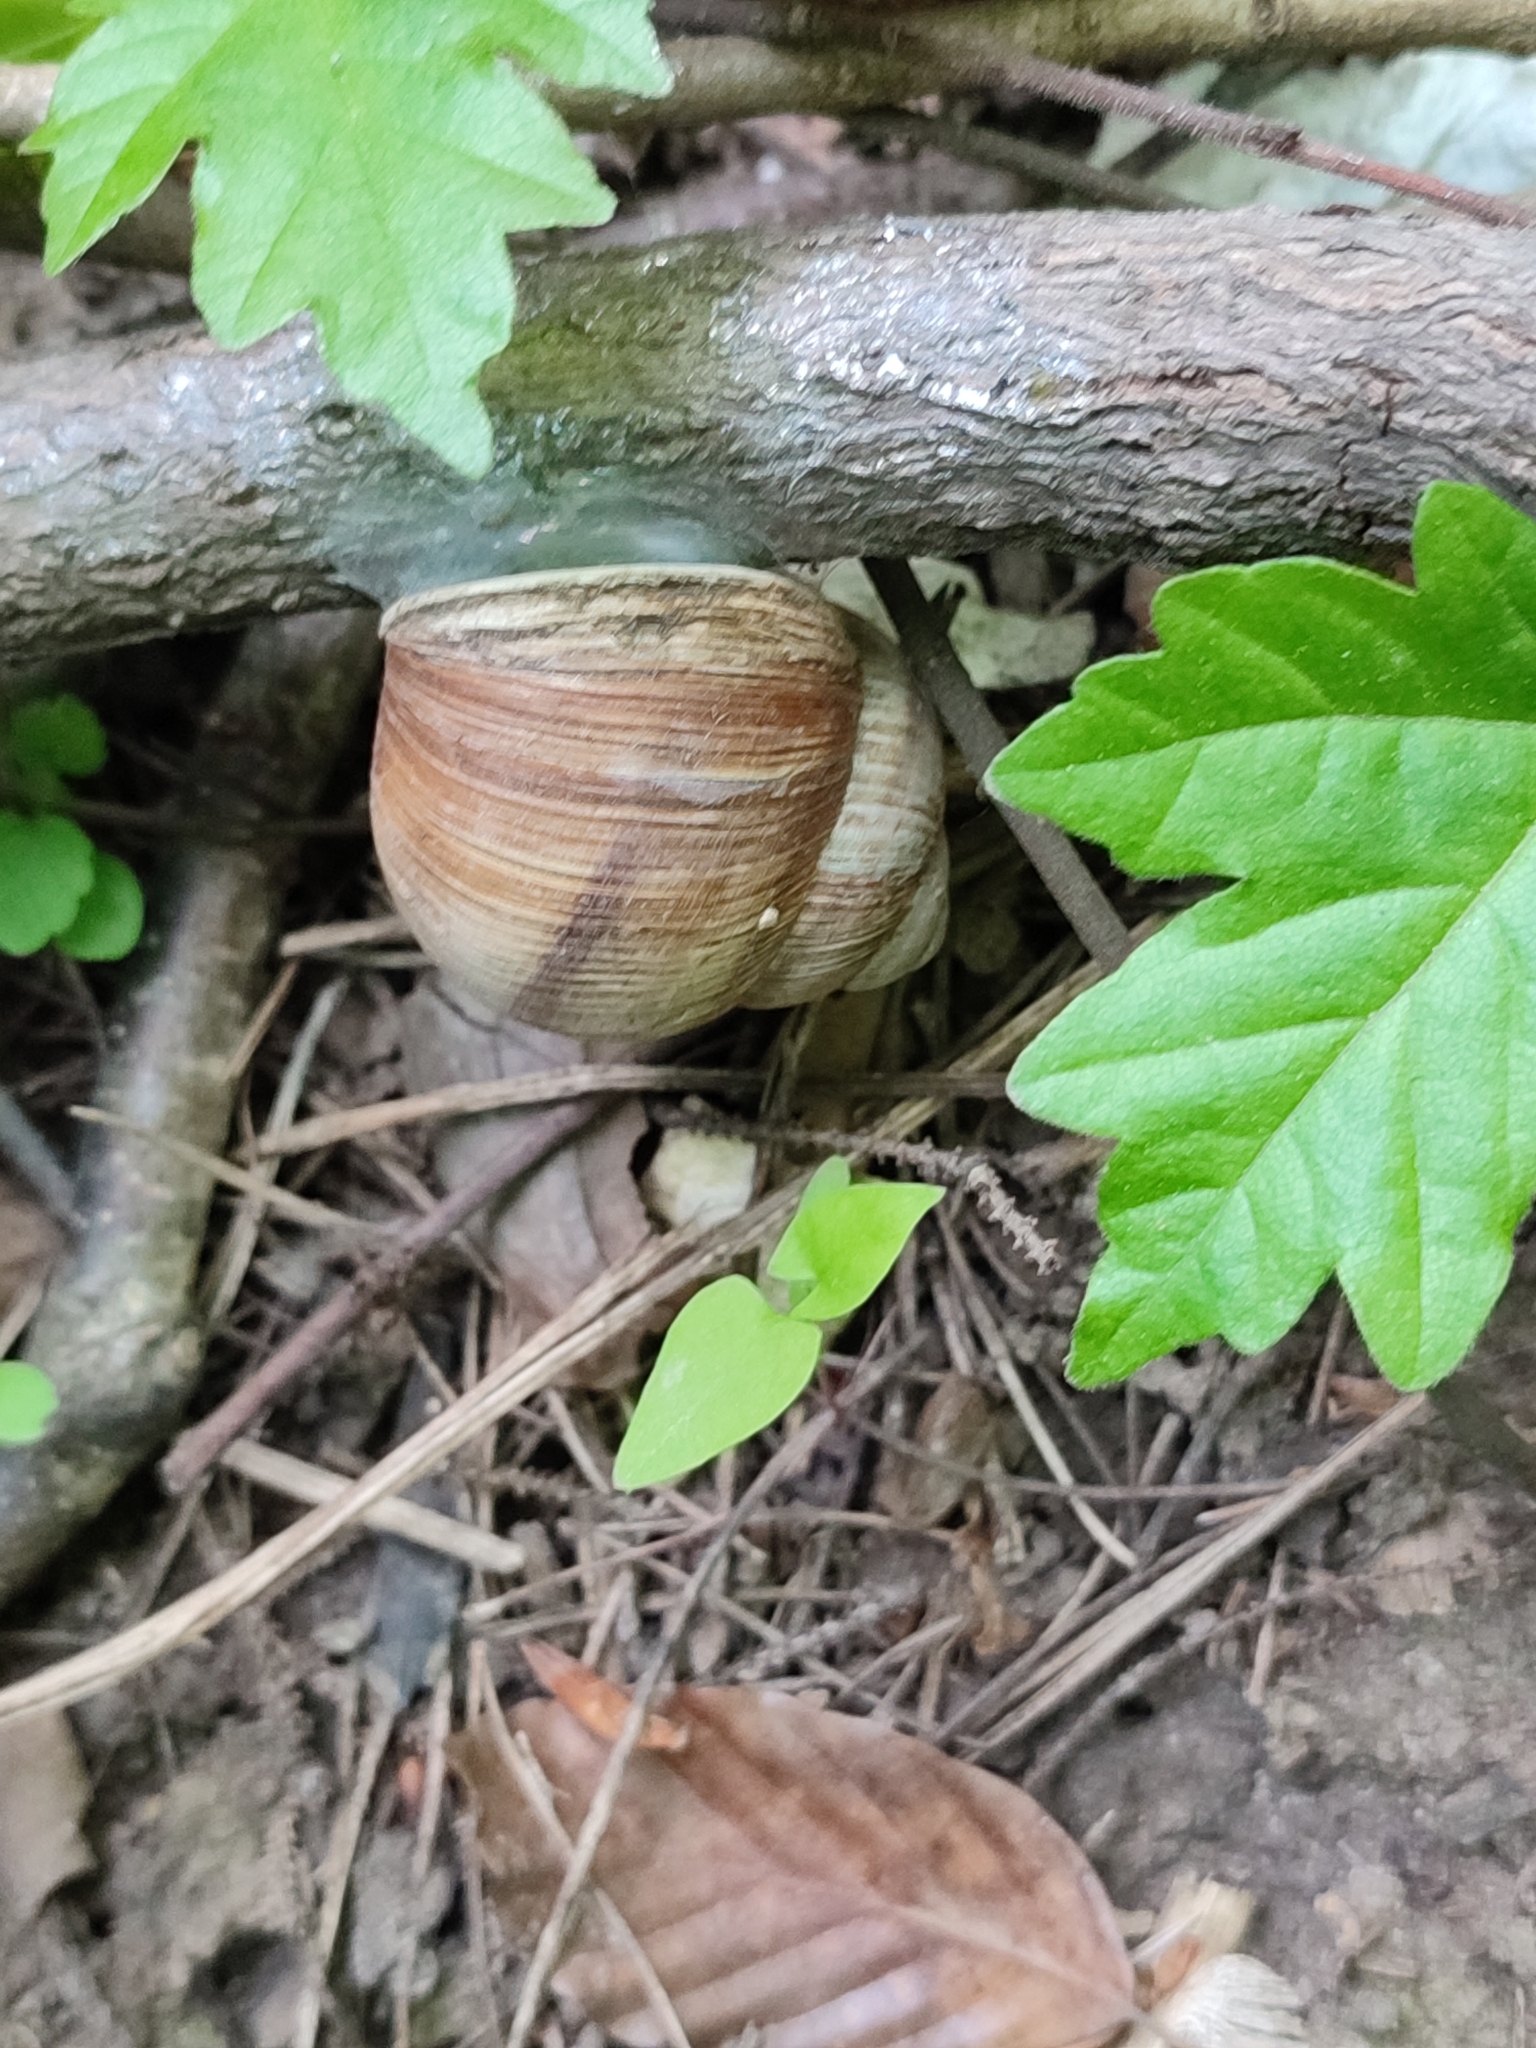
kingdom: Animalia
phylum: Mollusca
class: Gastropoda
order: Stylommatophora
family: Helicidae
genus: Helix
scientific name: Helix pomatia
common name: Roman snail
